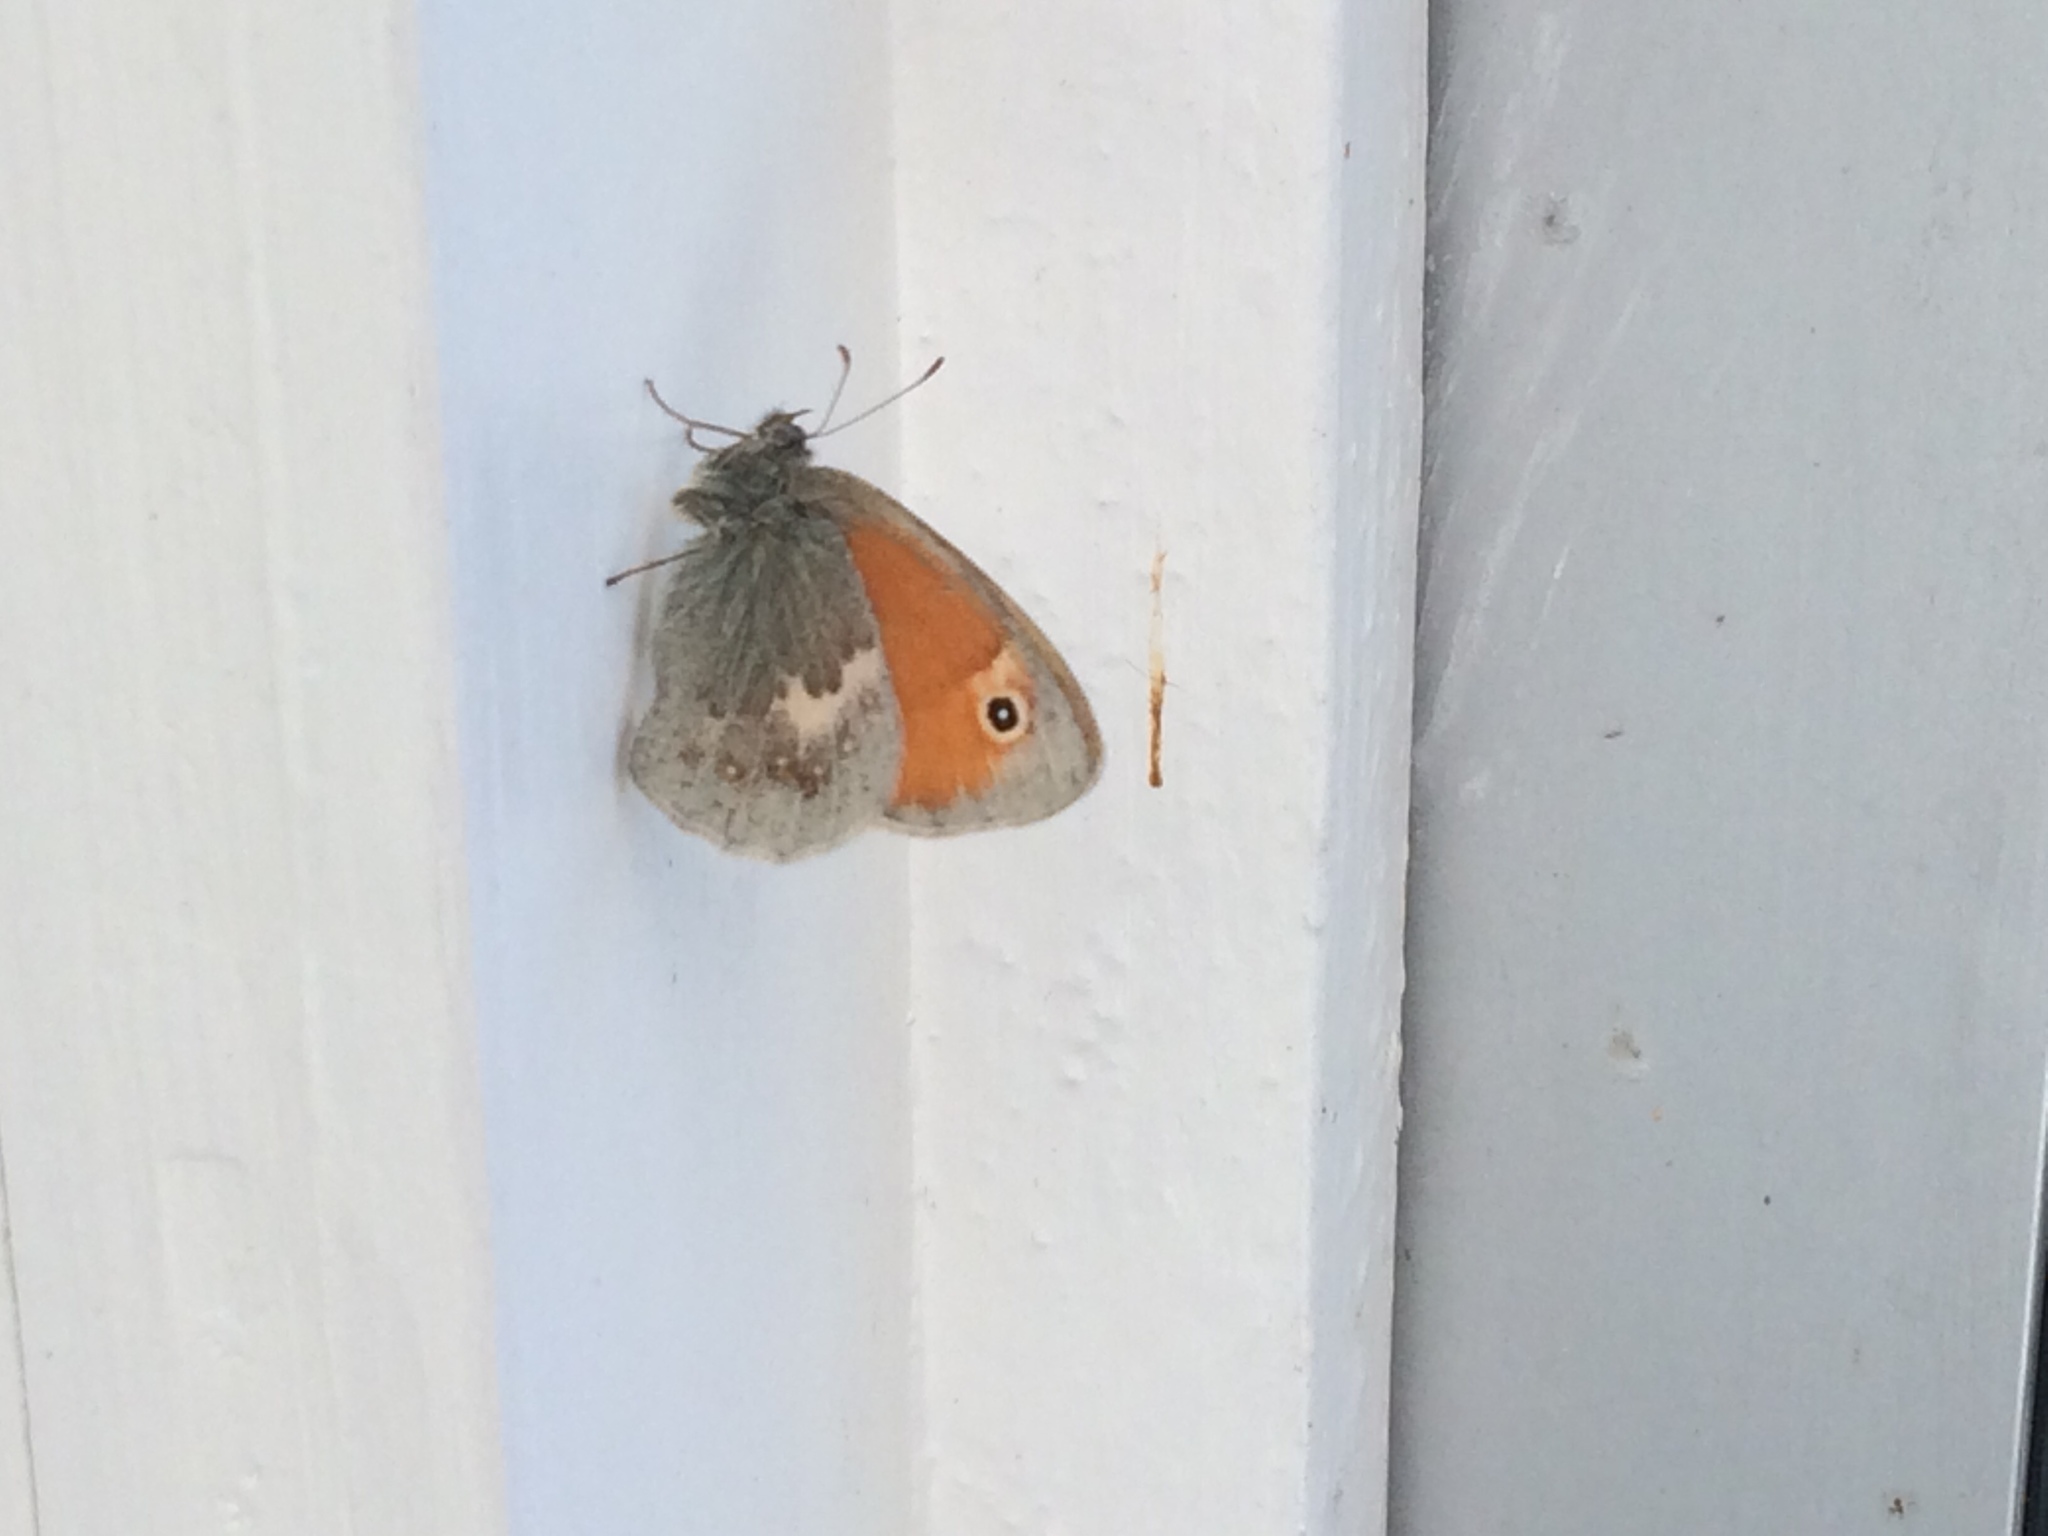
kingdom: Animalia
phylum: Arthropoda
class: Insecta
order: Lepidoptera
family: Nymphalidae
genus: Coenonympha
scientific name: Coenonympha pamphilus
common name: Small heath
